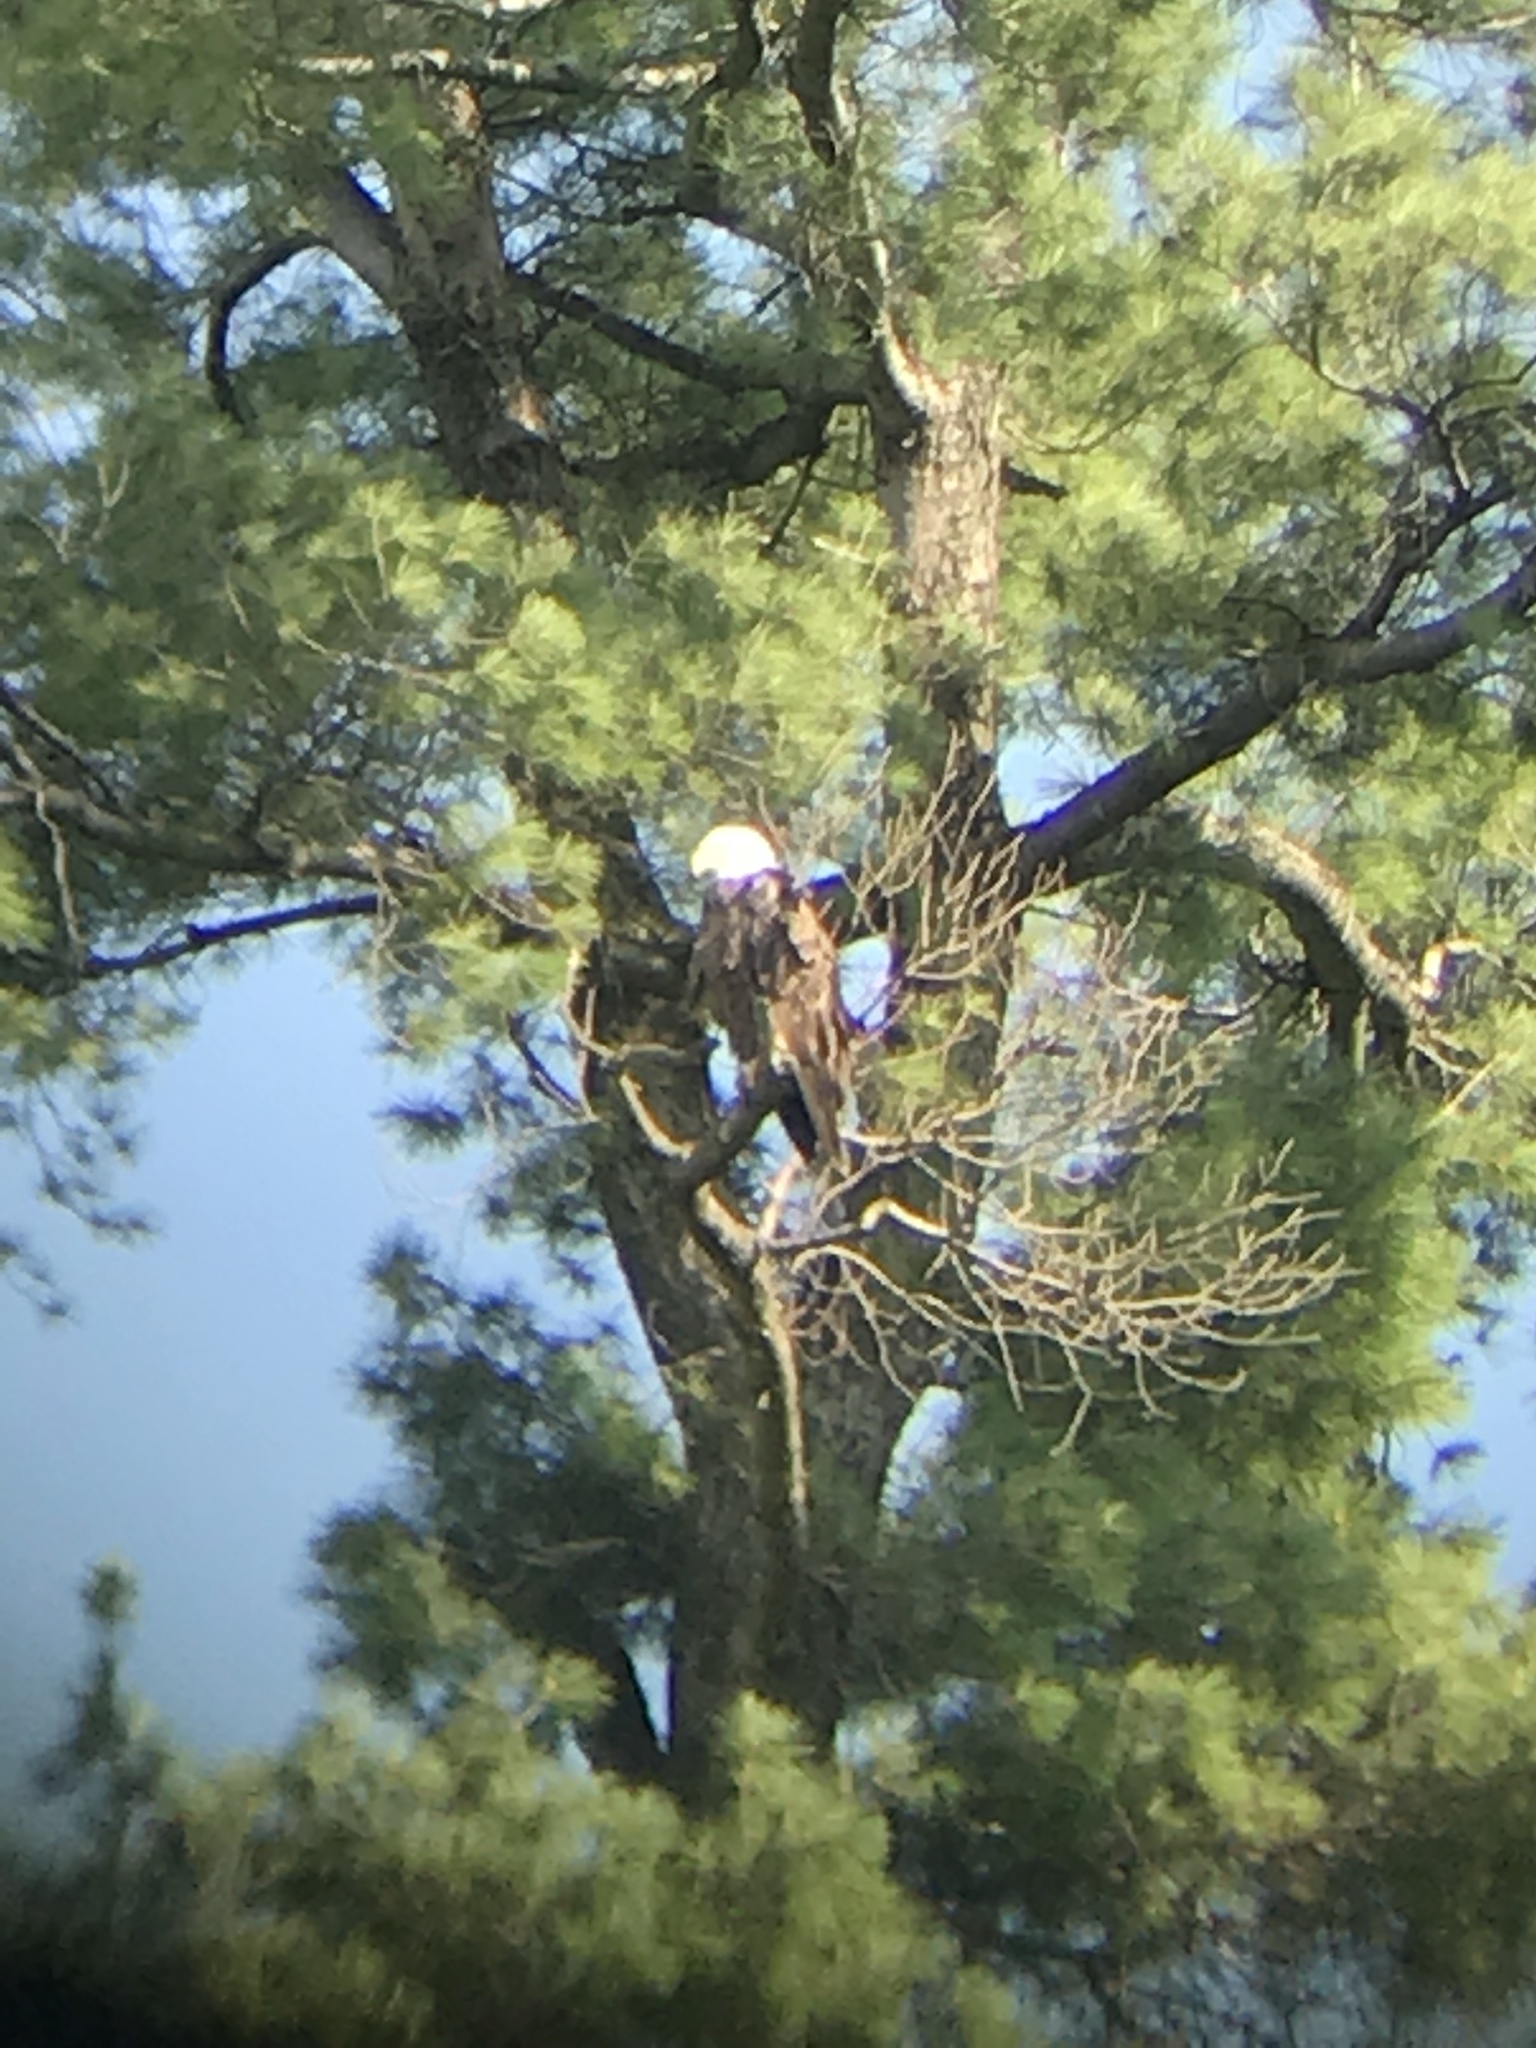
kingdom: Animalia
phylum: Chordata
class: Aves
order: Accipitriformes
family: Accipitridae
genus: Haliaeetus
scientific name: Haliaeetus leucocephalus
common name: Bald eagle
